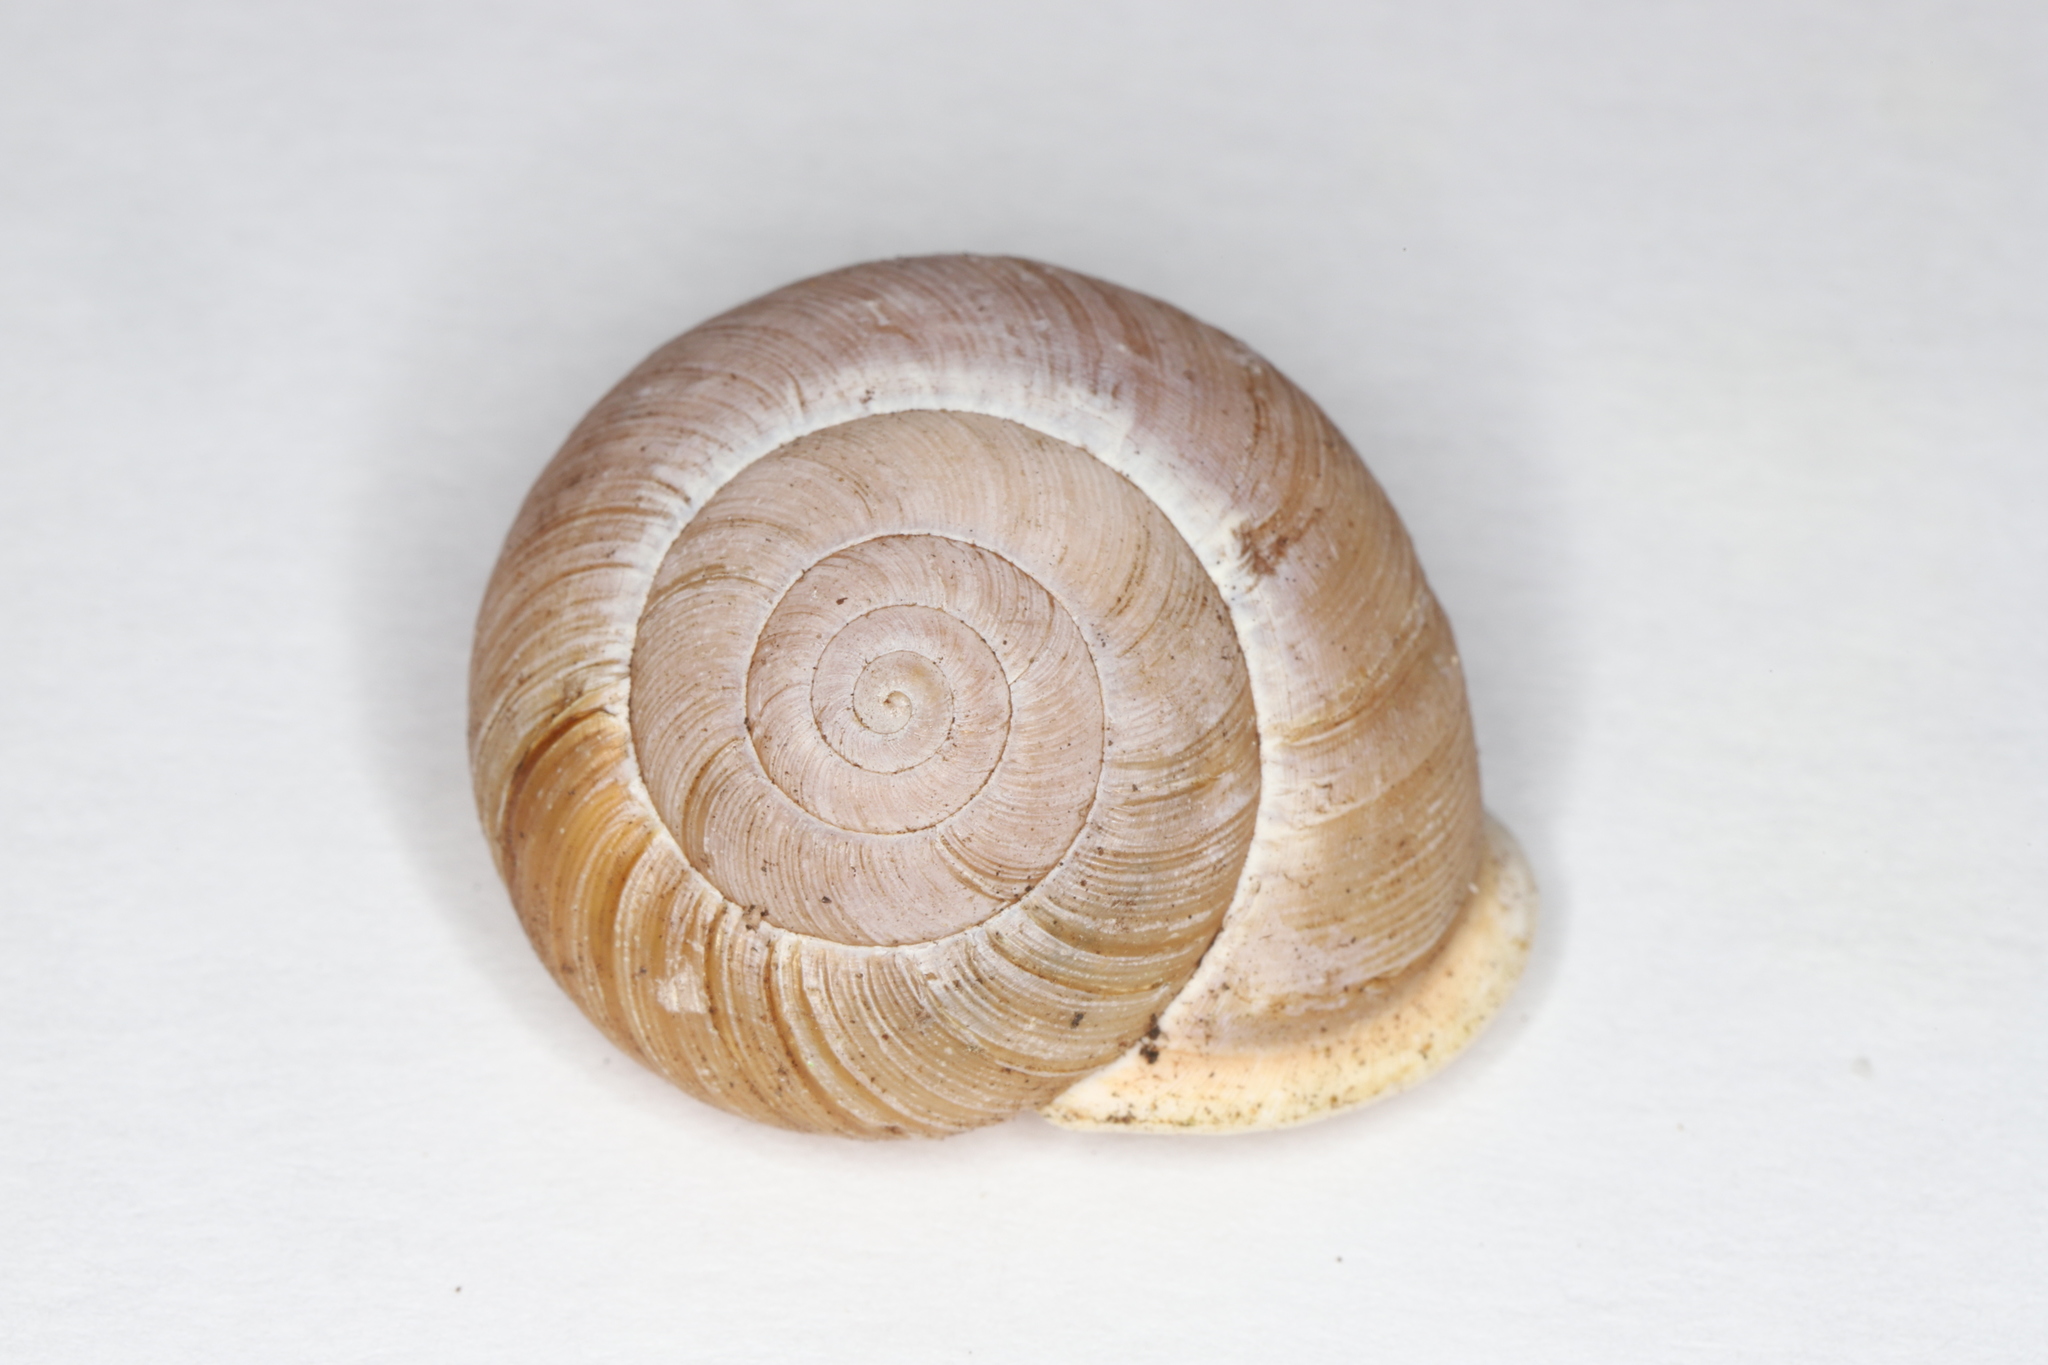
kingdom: Animalia
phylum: Mollusca
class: Gastropoda
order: Stylommatophora
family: Polygyridae
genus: Neohelix
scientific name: Neohelix albolabris
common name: Eastern whitelip
